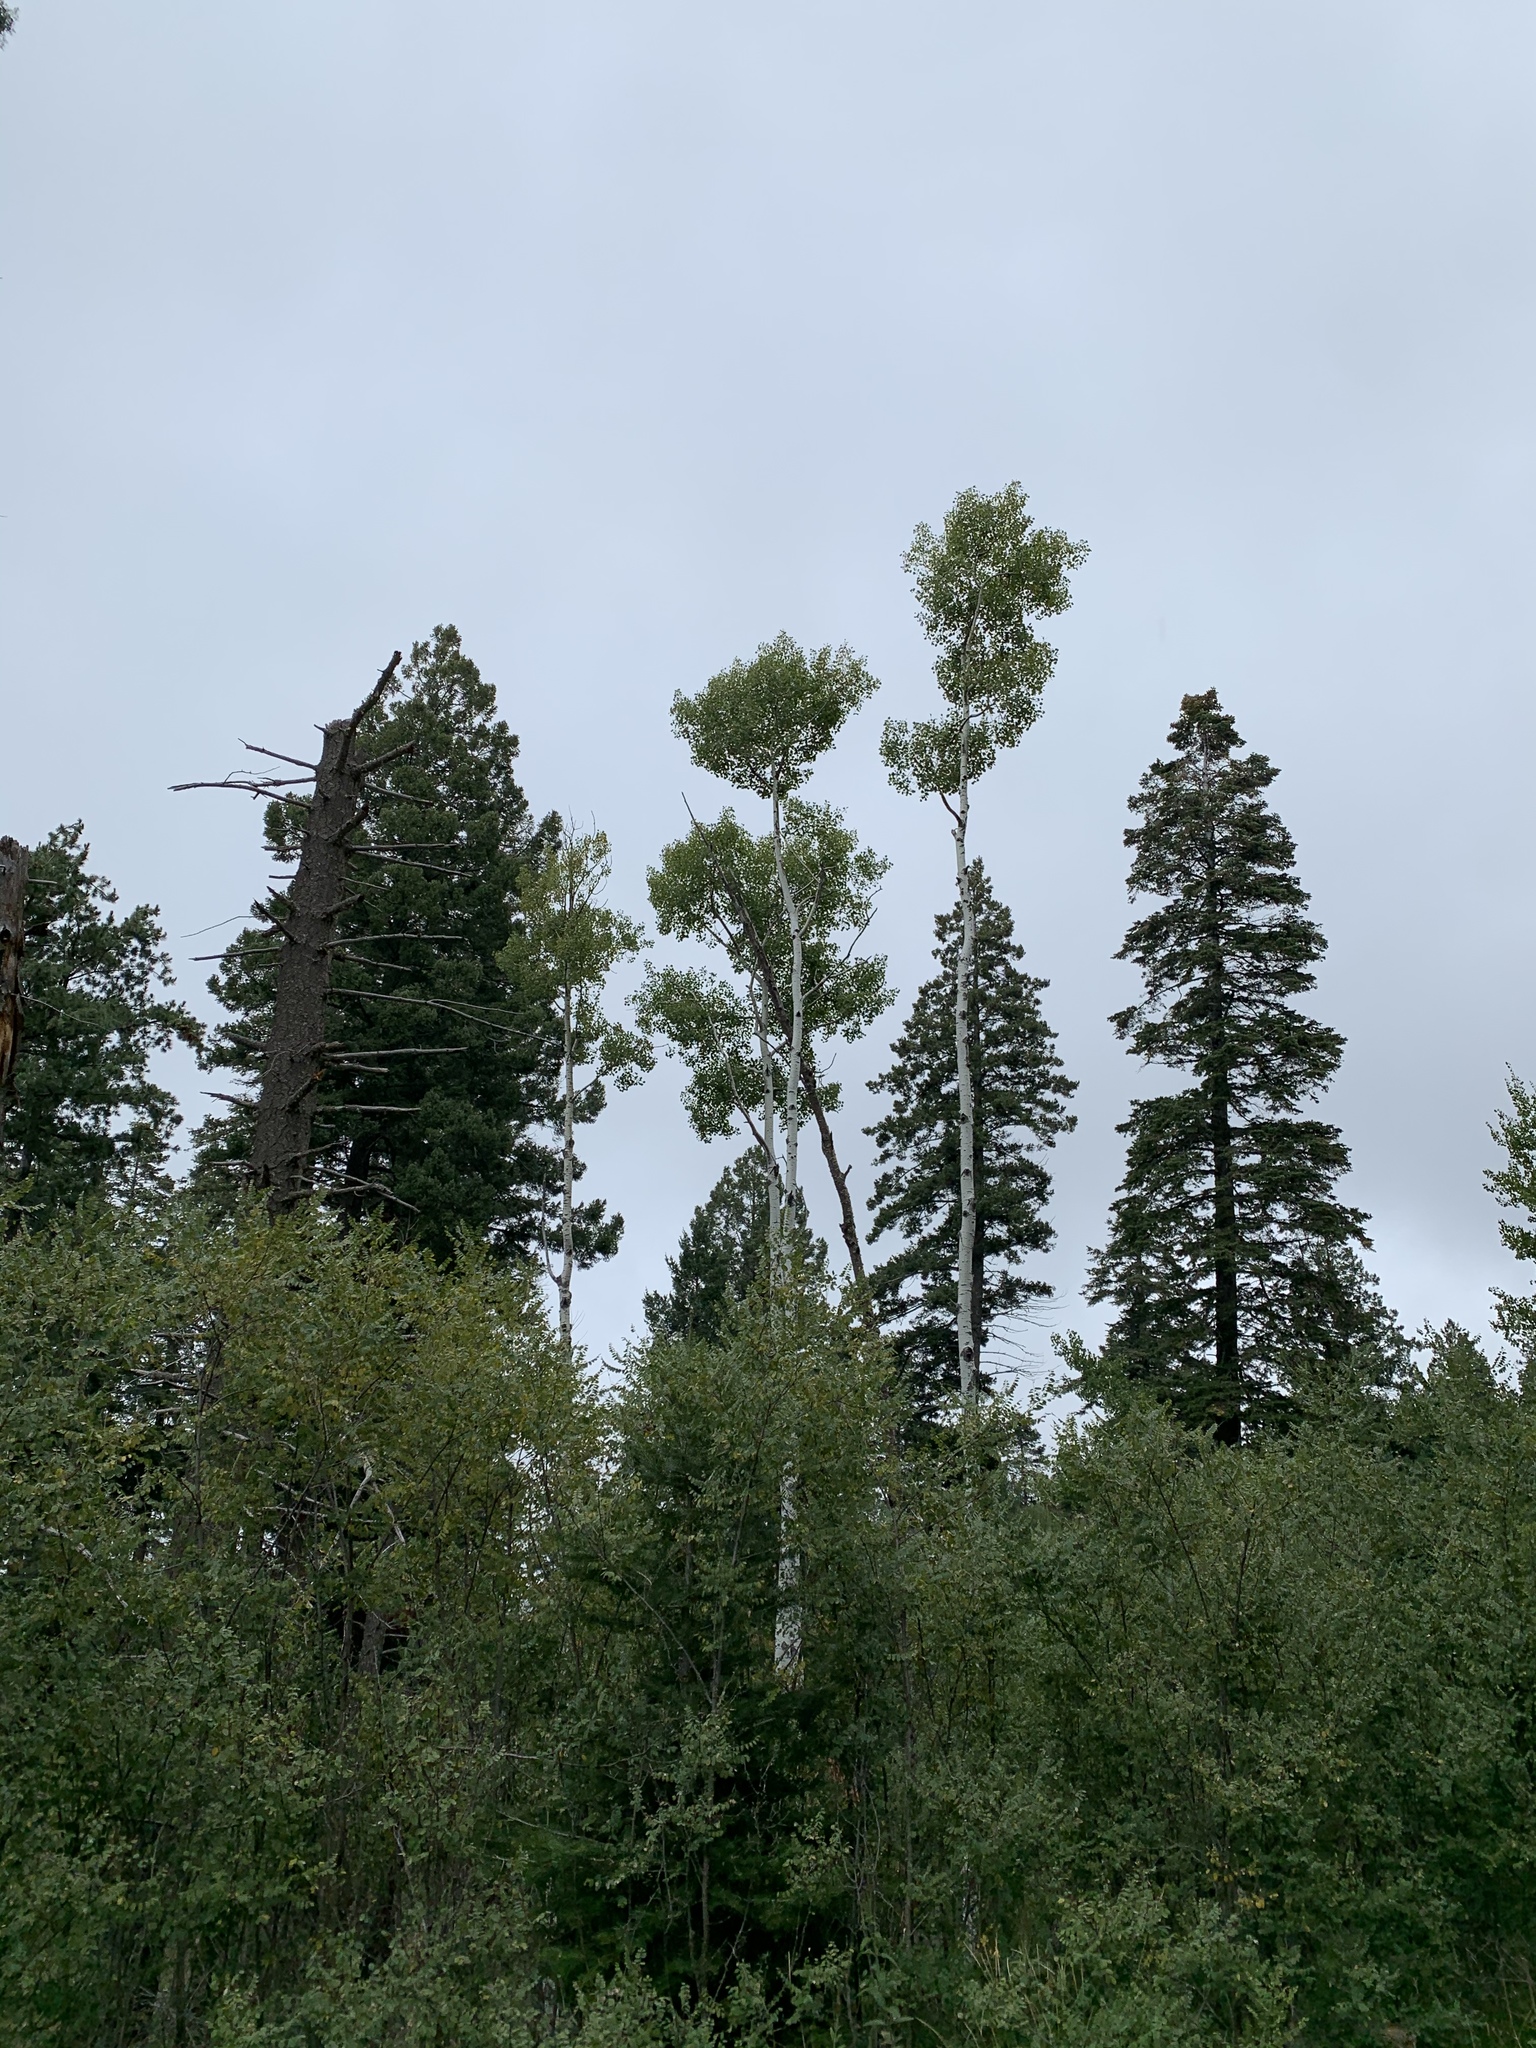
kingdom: Plantae
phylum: Tracheophyta
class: Magnoliopsida
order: Malpighiales
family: Salicaceae
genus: Populus
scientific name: Populus tremuloides
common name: Quaking aspen
